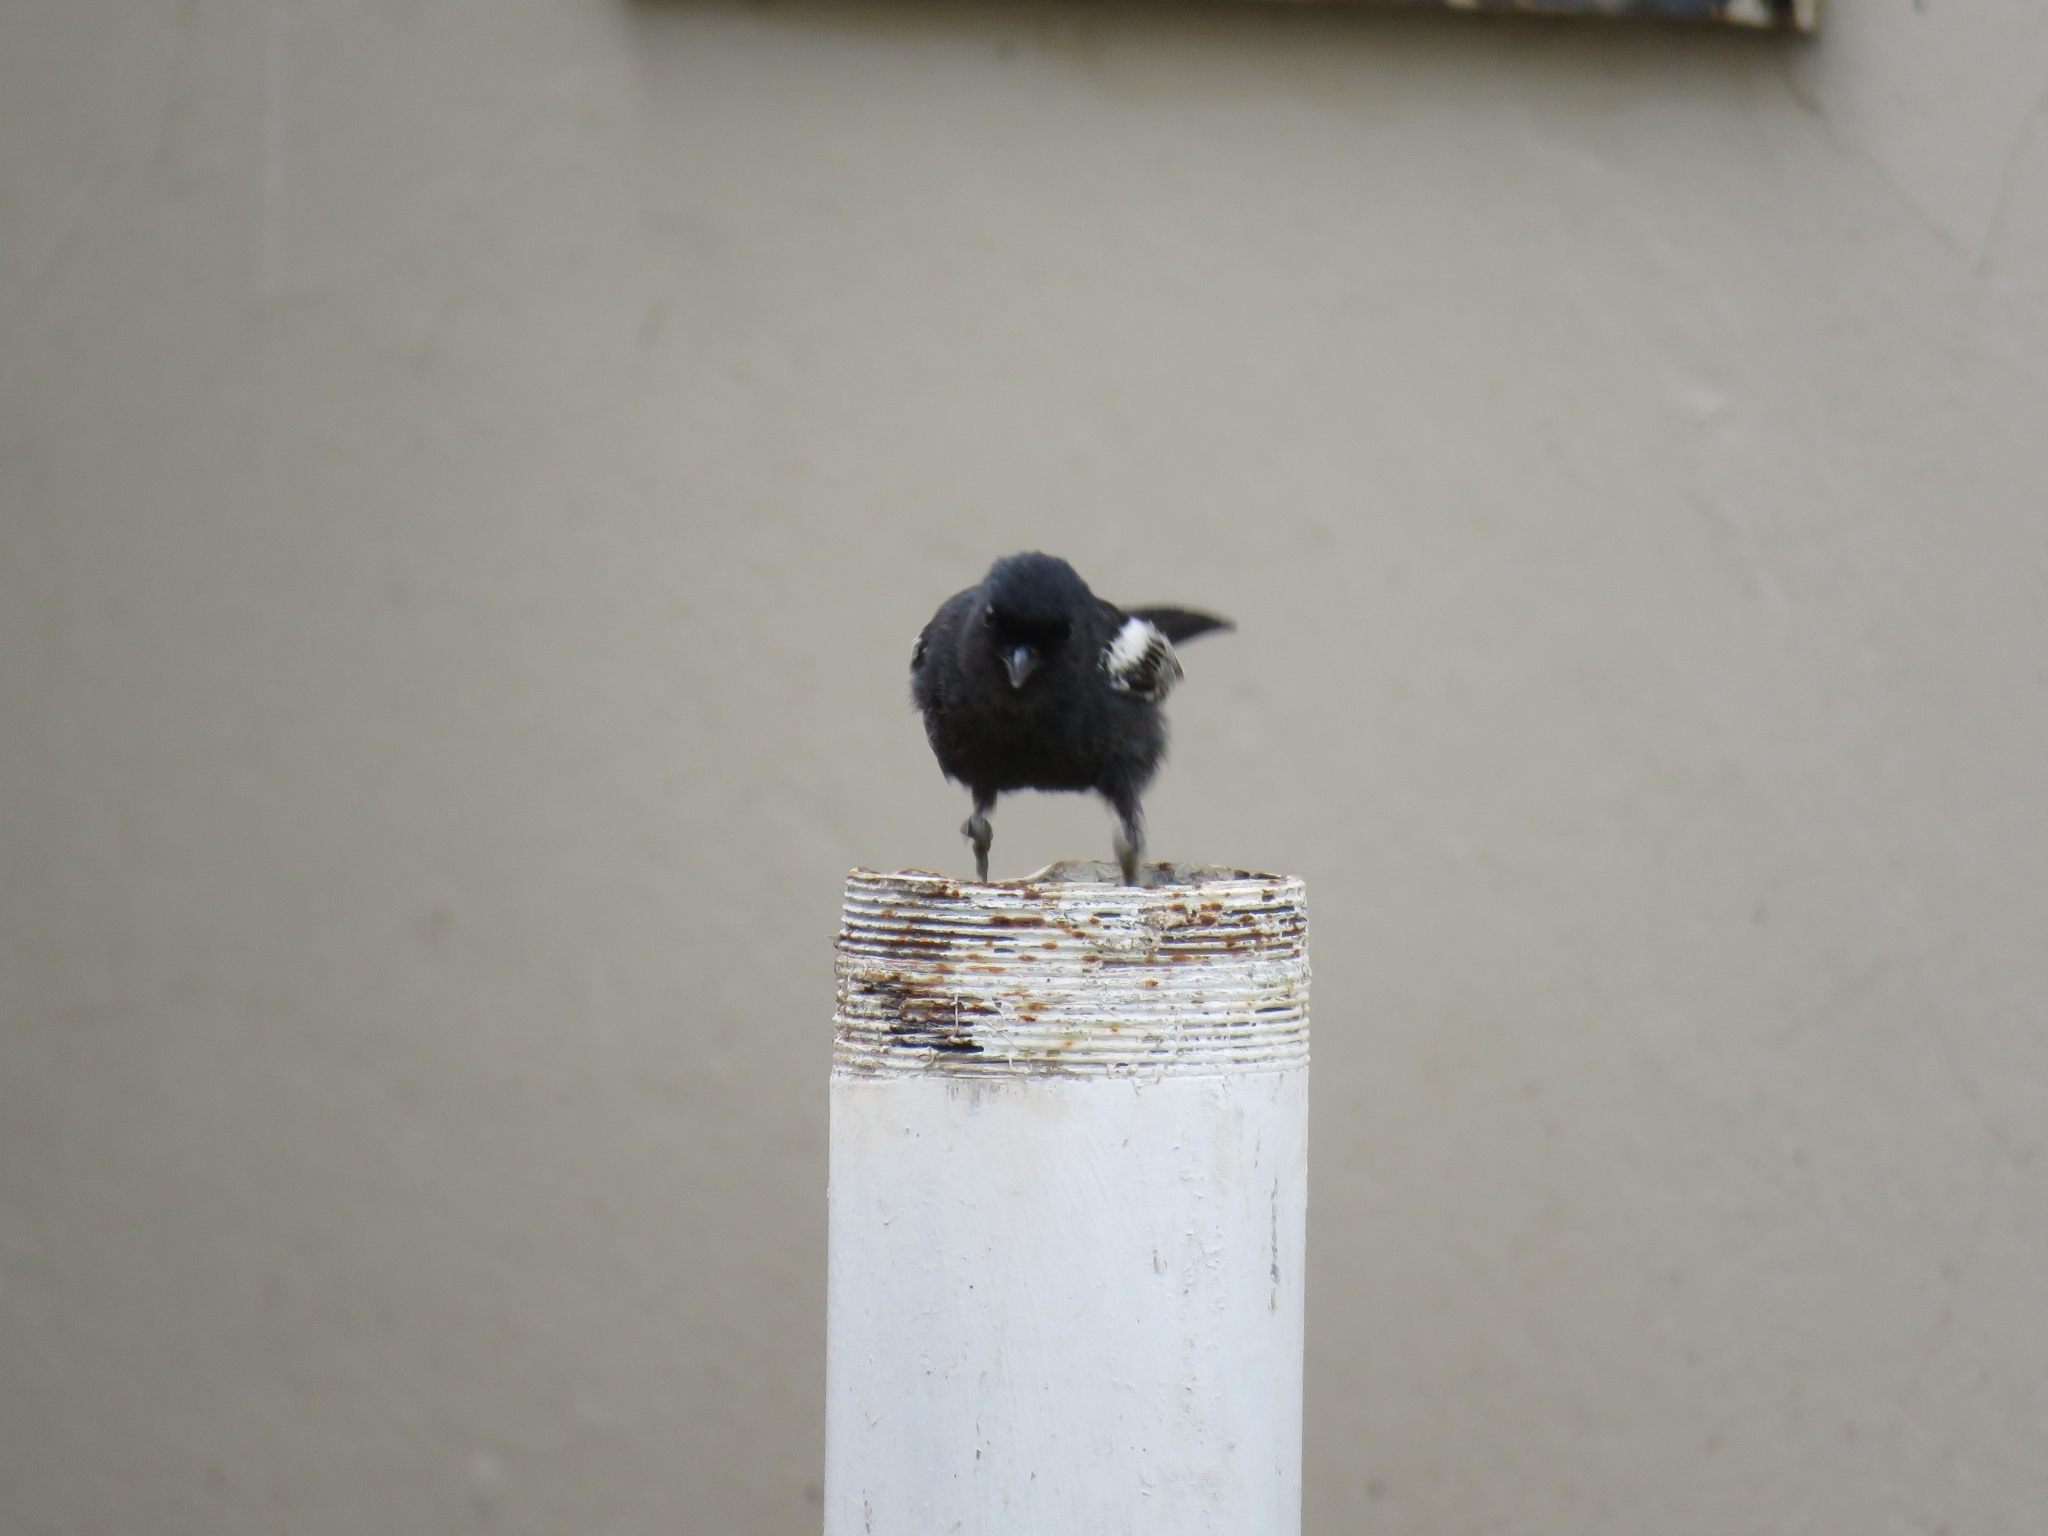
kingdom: Animalia
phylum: Chordata
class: Aves
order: Passeriformes
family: Paridae
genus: Parus
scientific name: Parus niger
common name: Southern black tit
